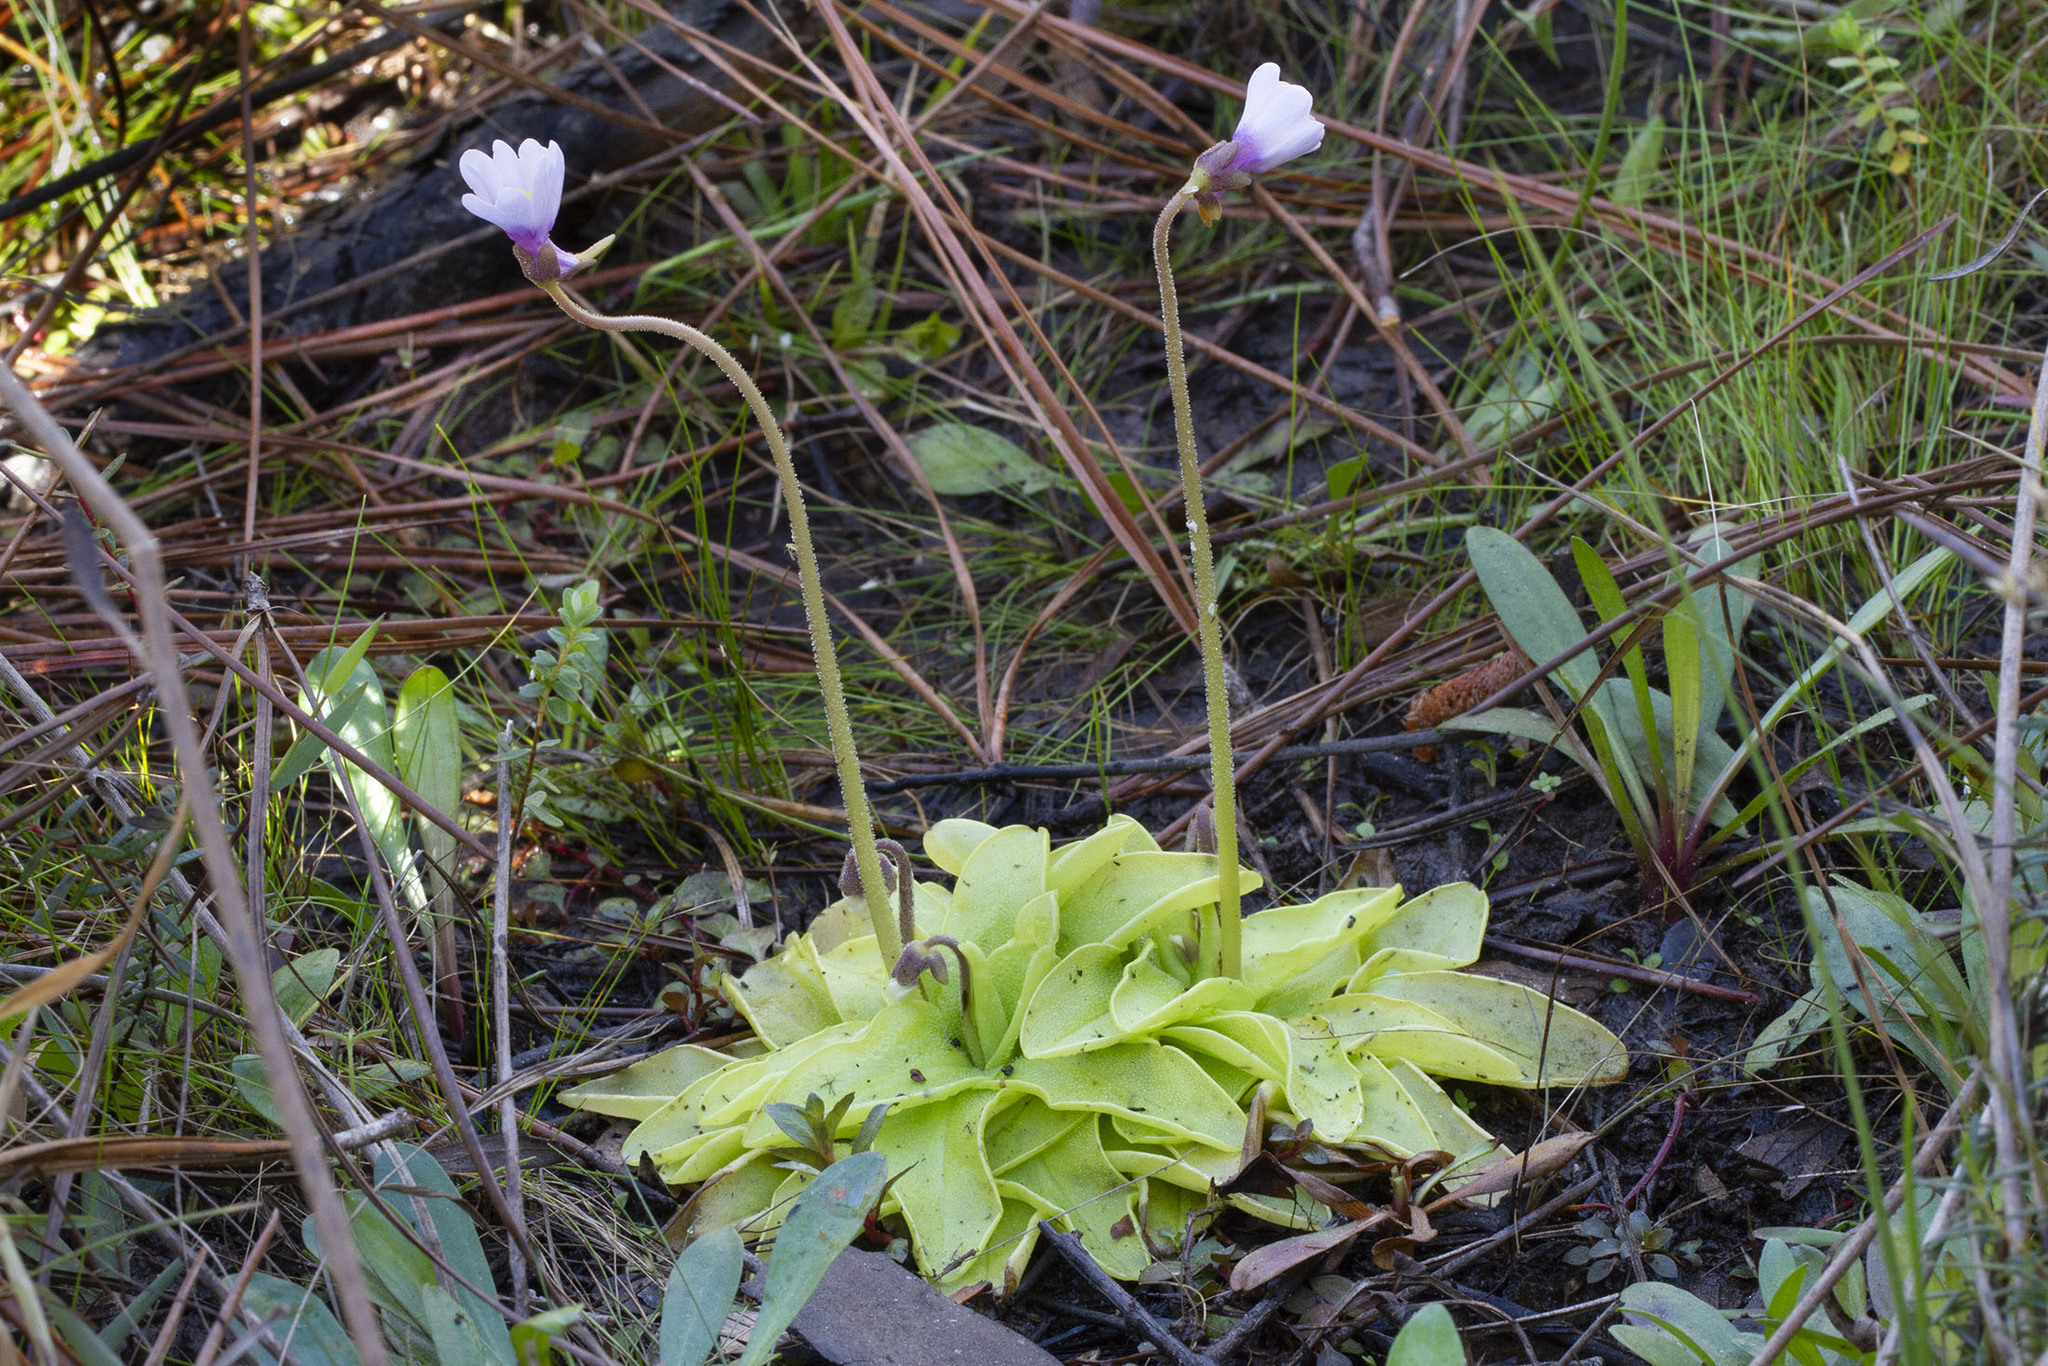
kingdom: Plantae
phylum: Tracheophyta
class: Magnoliopsida
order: Lamiales
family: Lentibulariaceae
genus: Pinguicula
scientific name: Pinguicula ionantha
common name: Godfrey's butterwort
